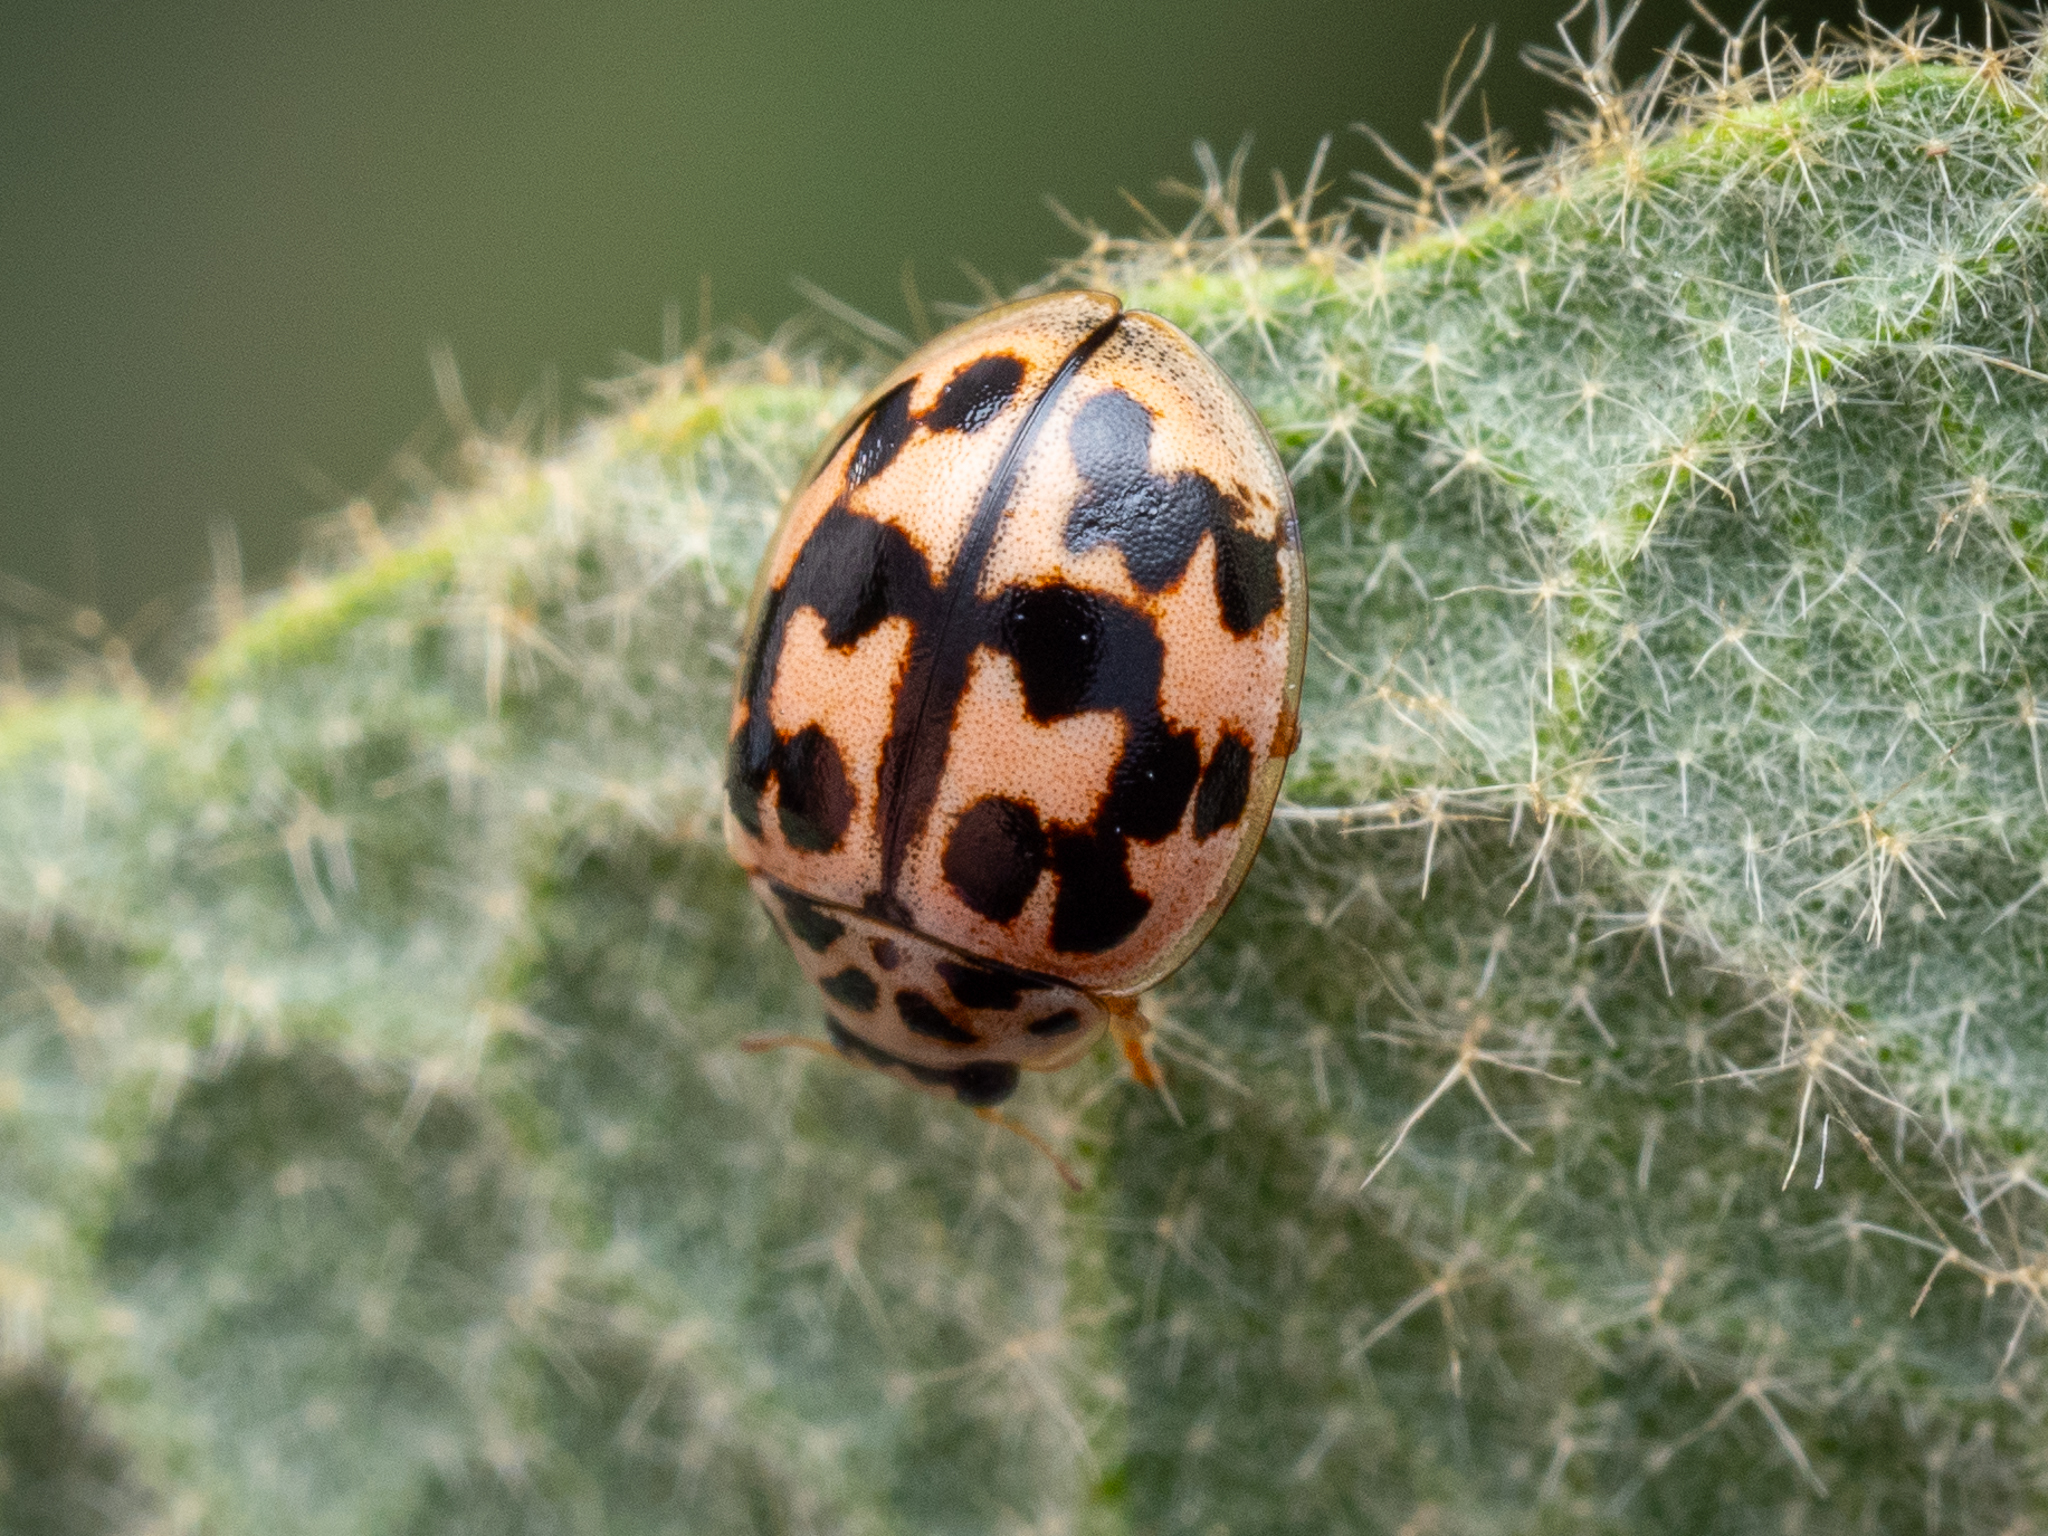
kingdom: Animalia
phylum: Arthropoda
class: Insecta
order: Coleoptera
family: Coccinellidae
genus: Oenopia
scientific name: Oenopia conglobata
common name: Ladybird beetle
